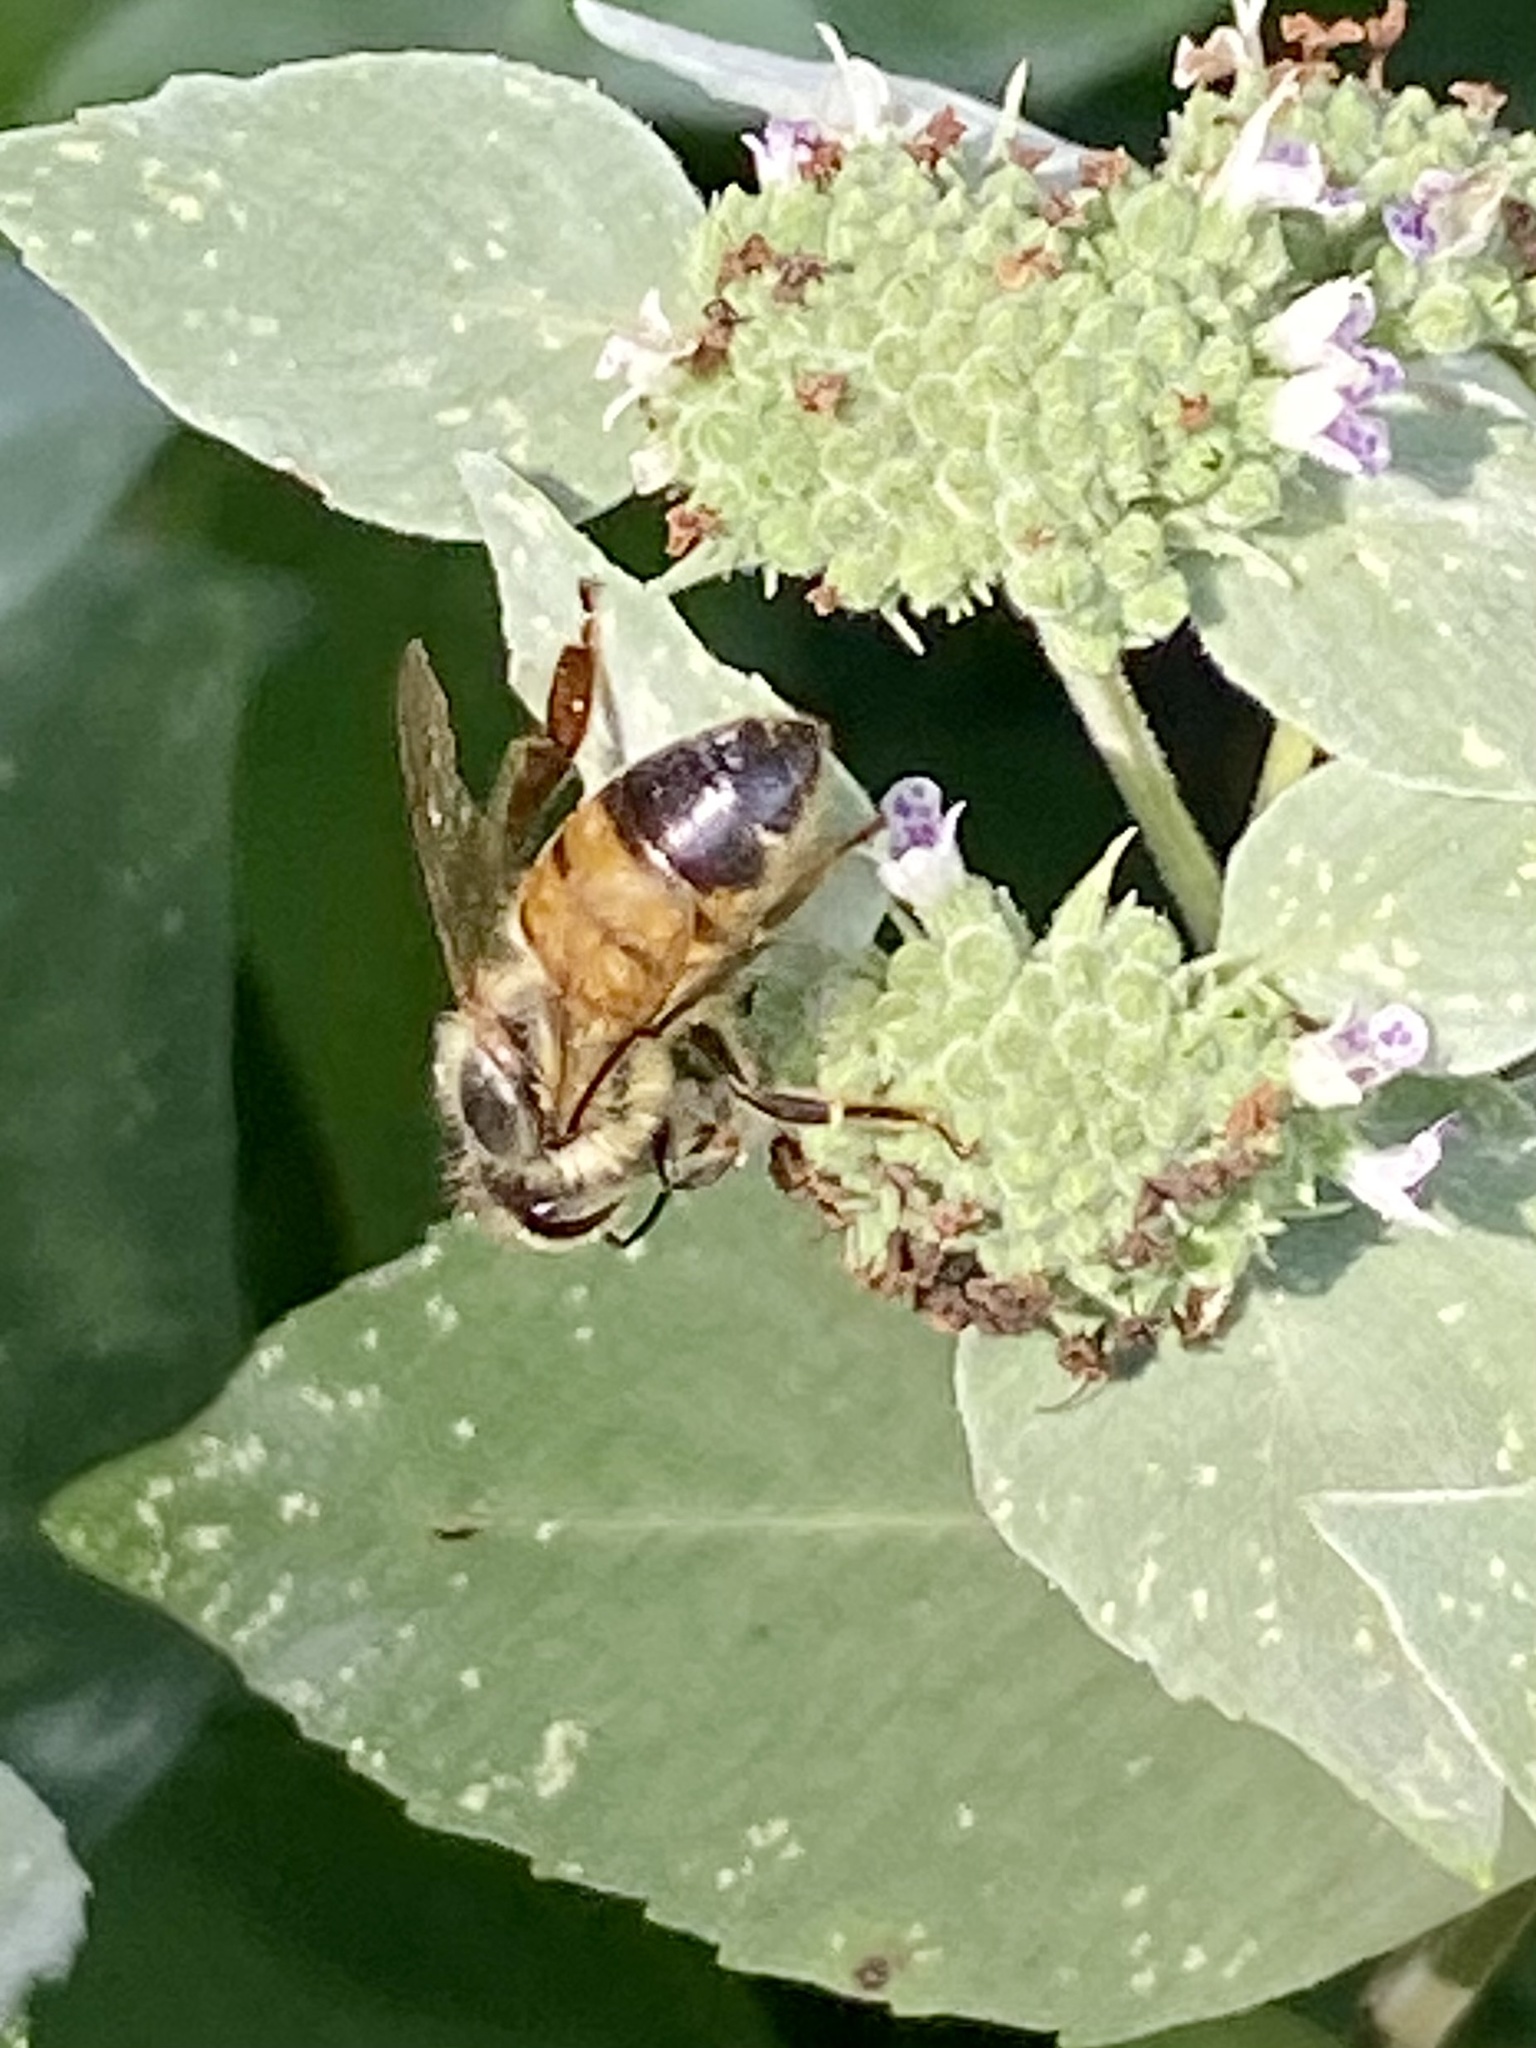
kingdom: Animalia
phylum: Arthropoda
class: Insecta
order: Hymenoptera
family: Apidae
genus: Apis
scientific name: Apis mellifera
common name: Honey bee
